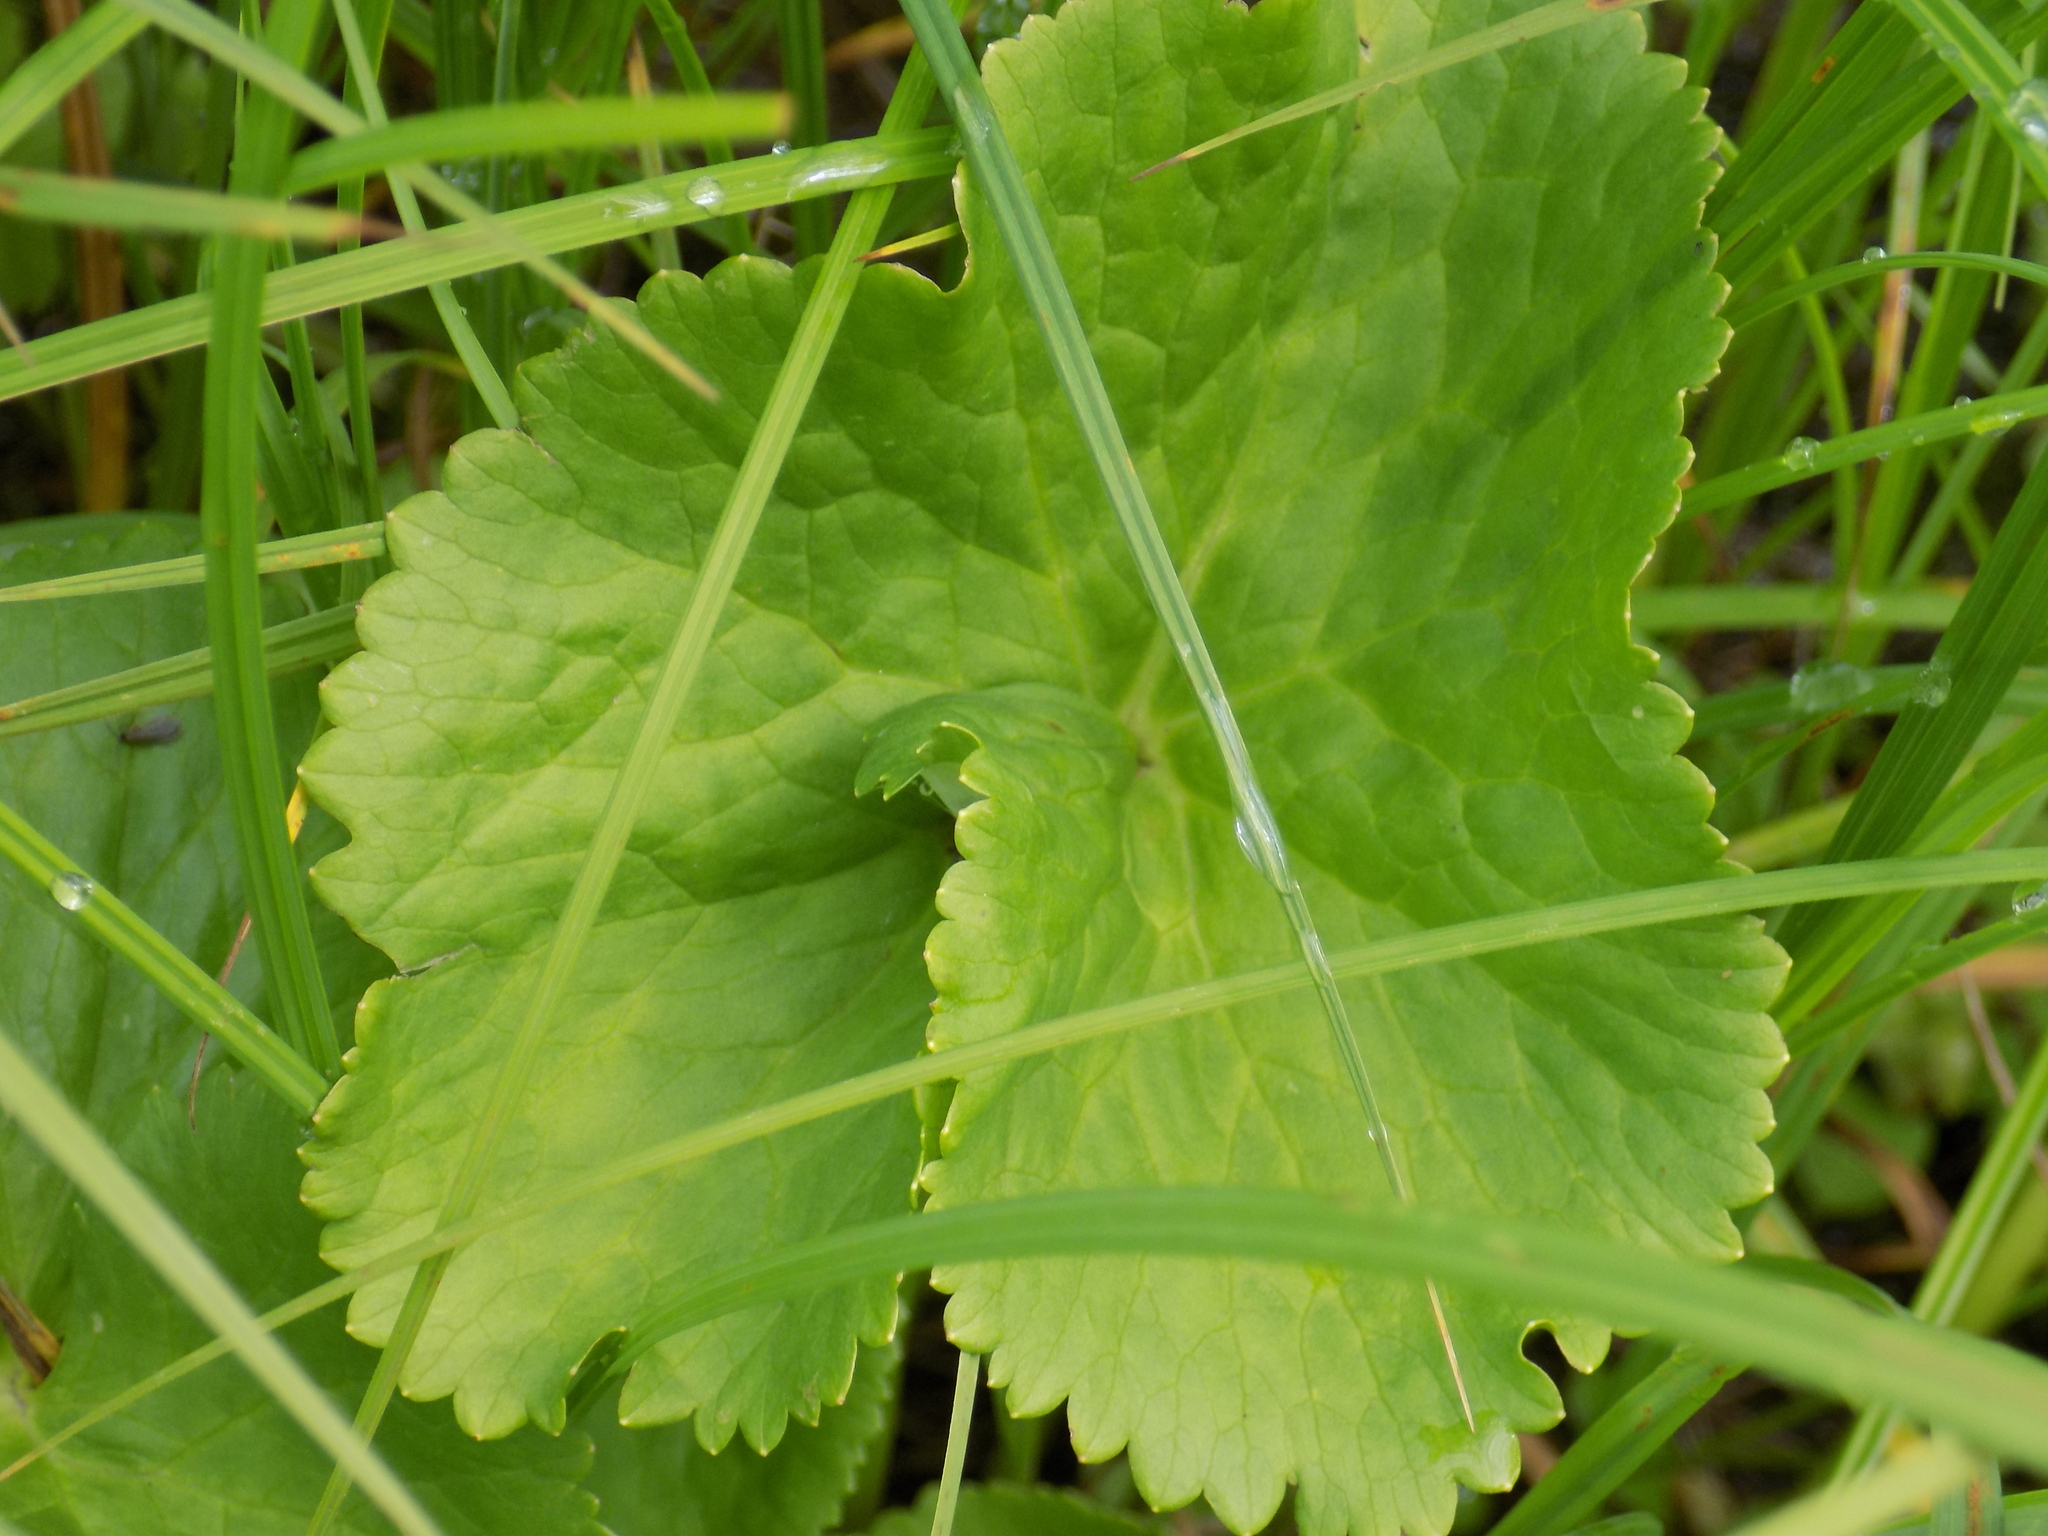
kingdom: Plantae
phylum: Tracheophyta
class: Magnoliopsida
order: Ranunculales
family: Ranunculaceae
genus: Caltha
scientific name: Caltha palustris
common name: Marsh marigold
